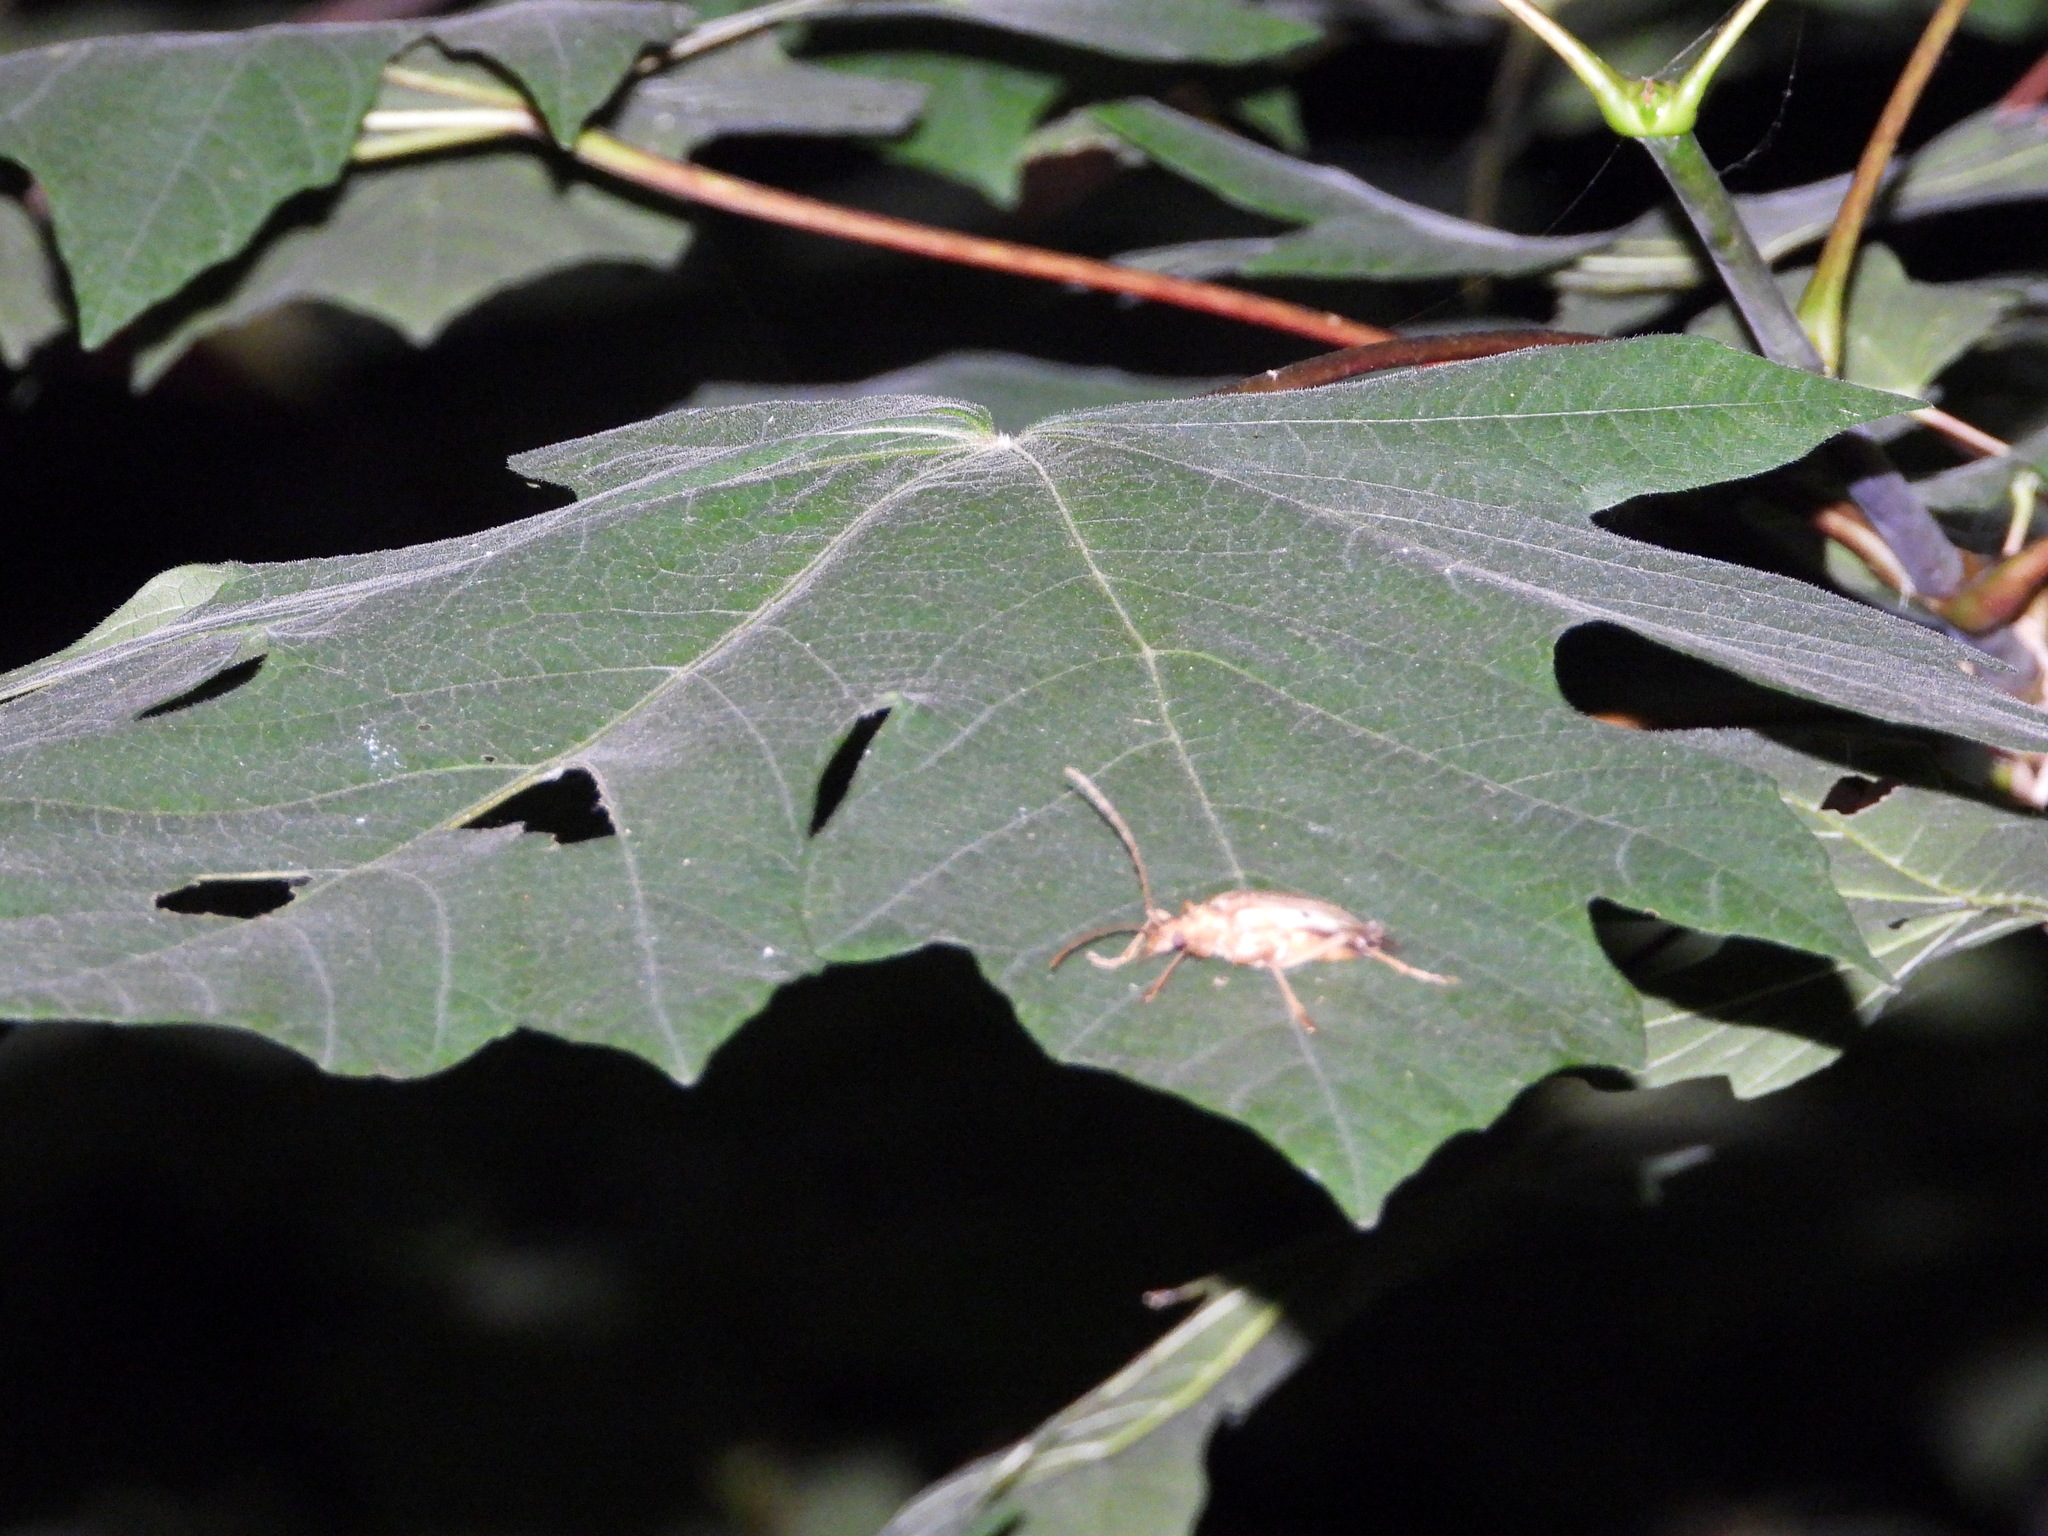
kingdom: Animalia
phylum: Arthropoda
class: Insecta
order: Coleoptera
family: Cerambycidae
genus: Centrodera
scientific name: Centrodera spurca
